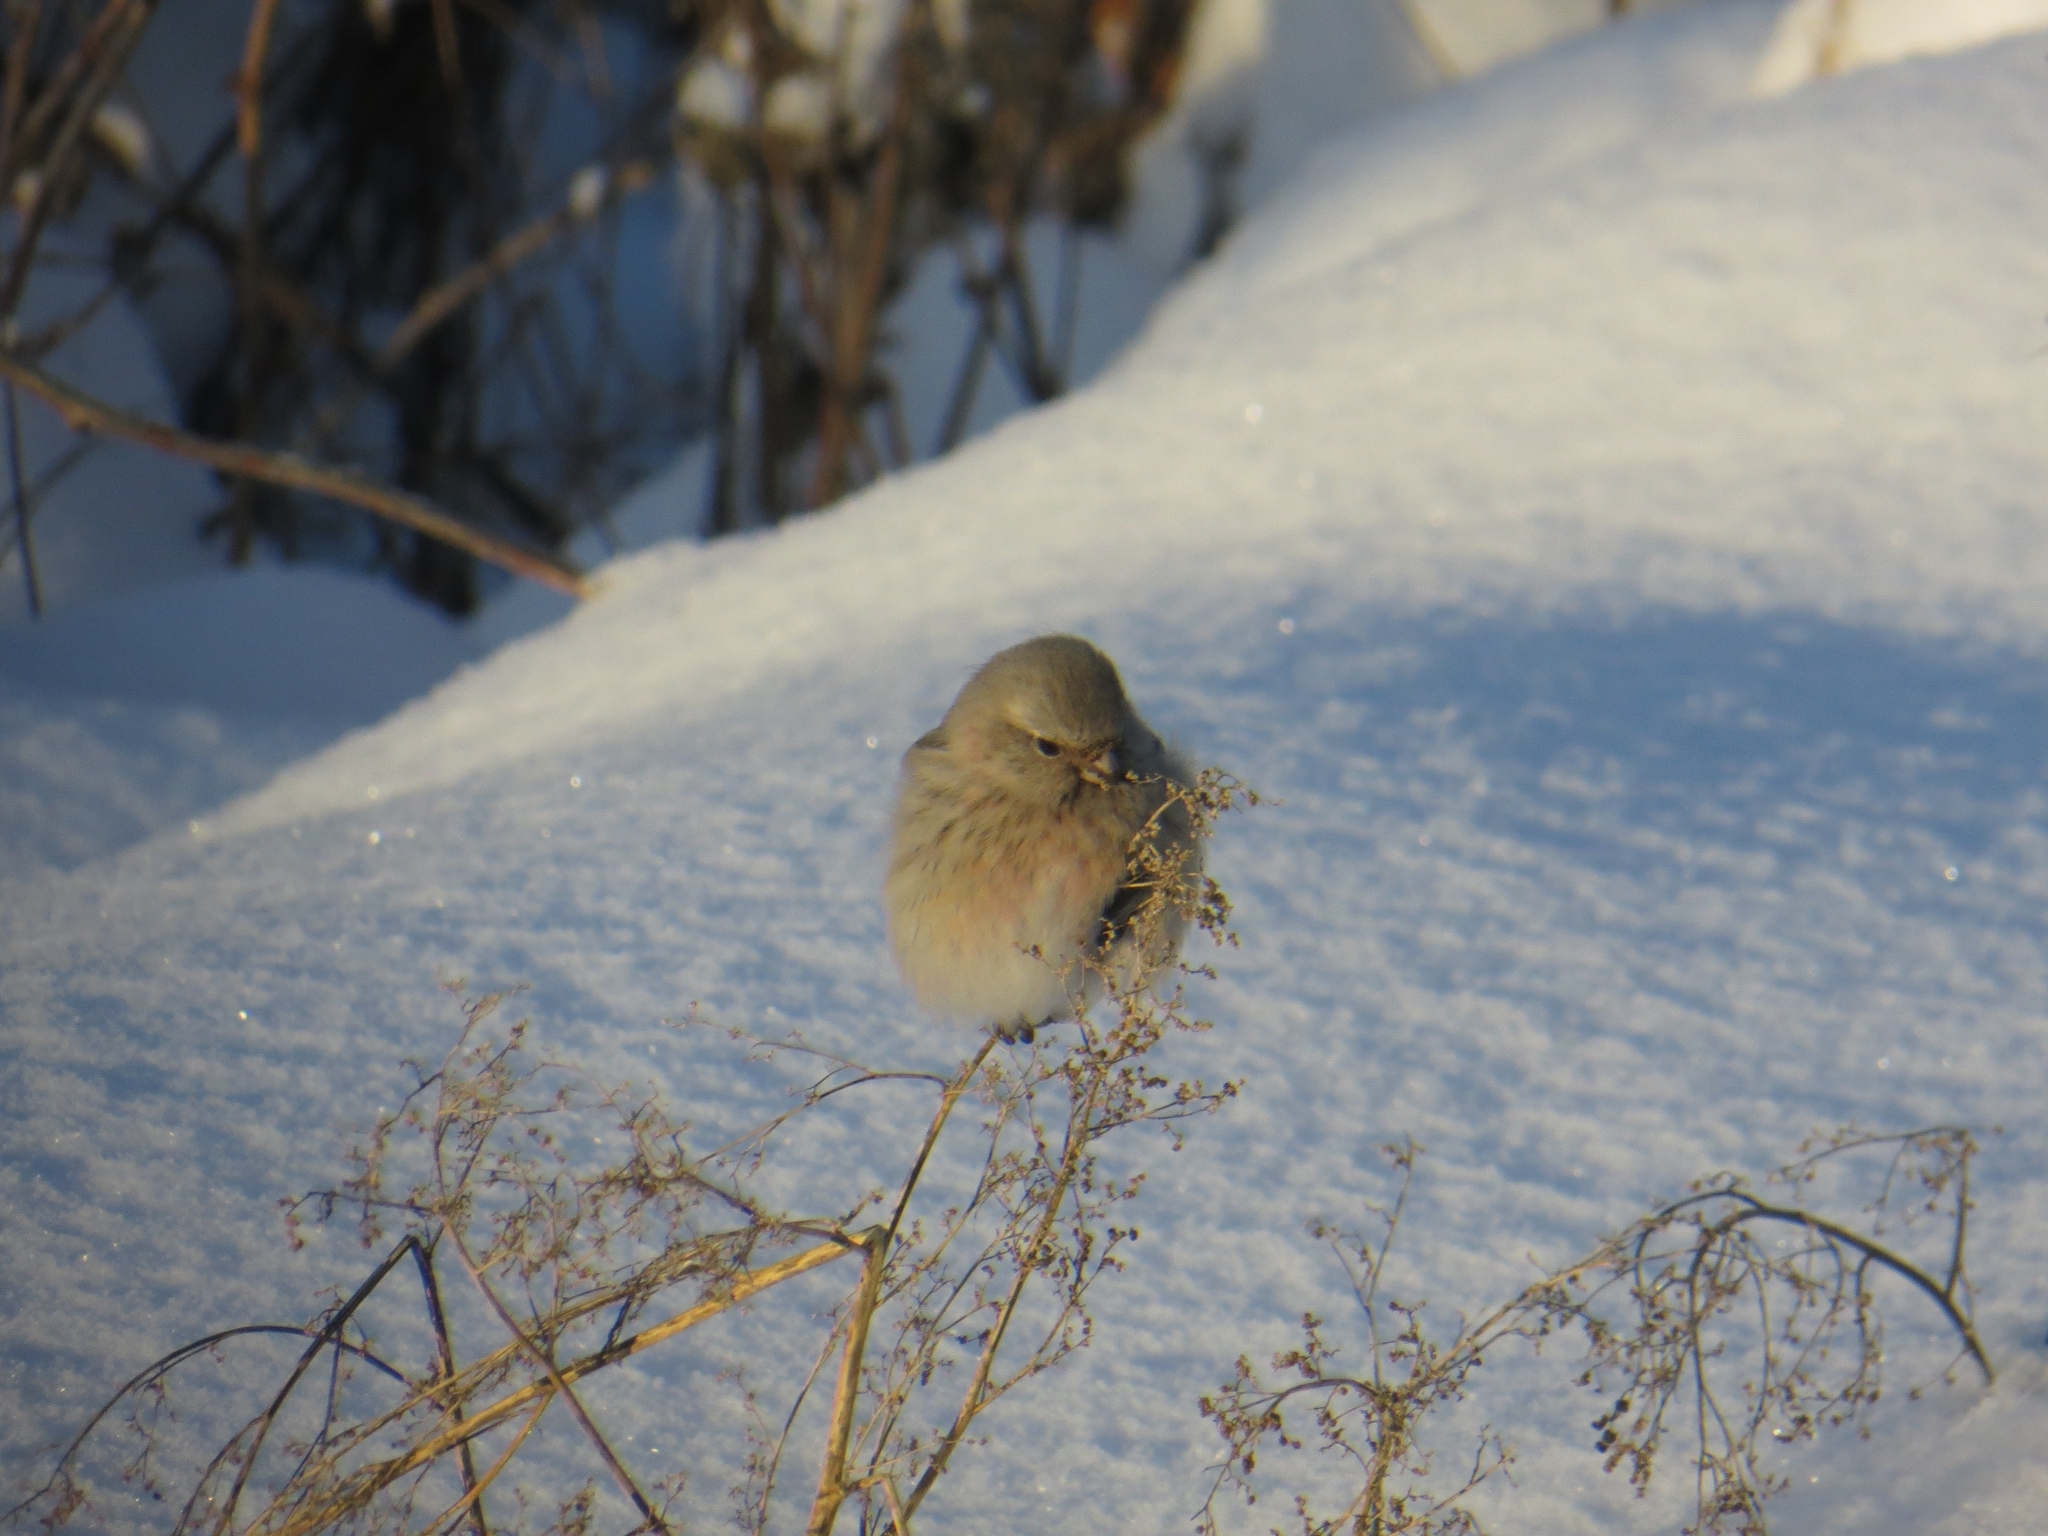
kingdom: Animalia
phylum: Chordata
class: Aves
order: Passeriformes
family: Fringillidae
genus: Carpodacus
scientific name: Carpodacus sibiricus
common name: Long-tailed rosefinch
